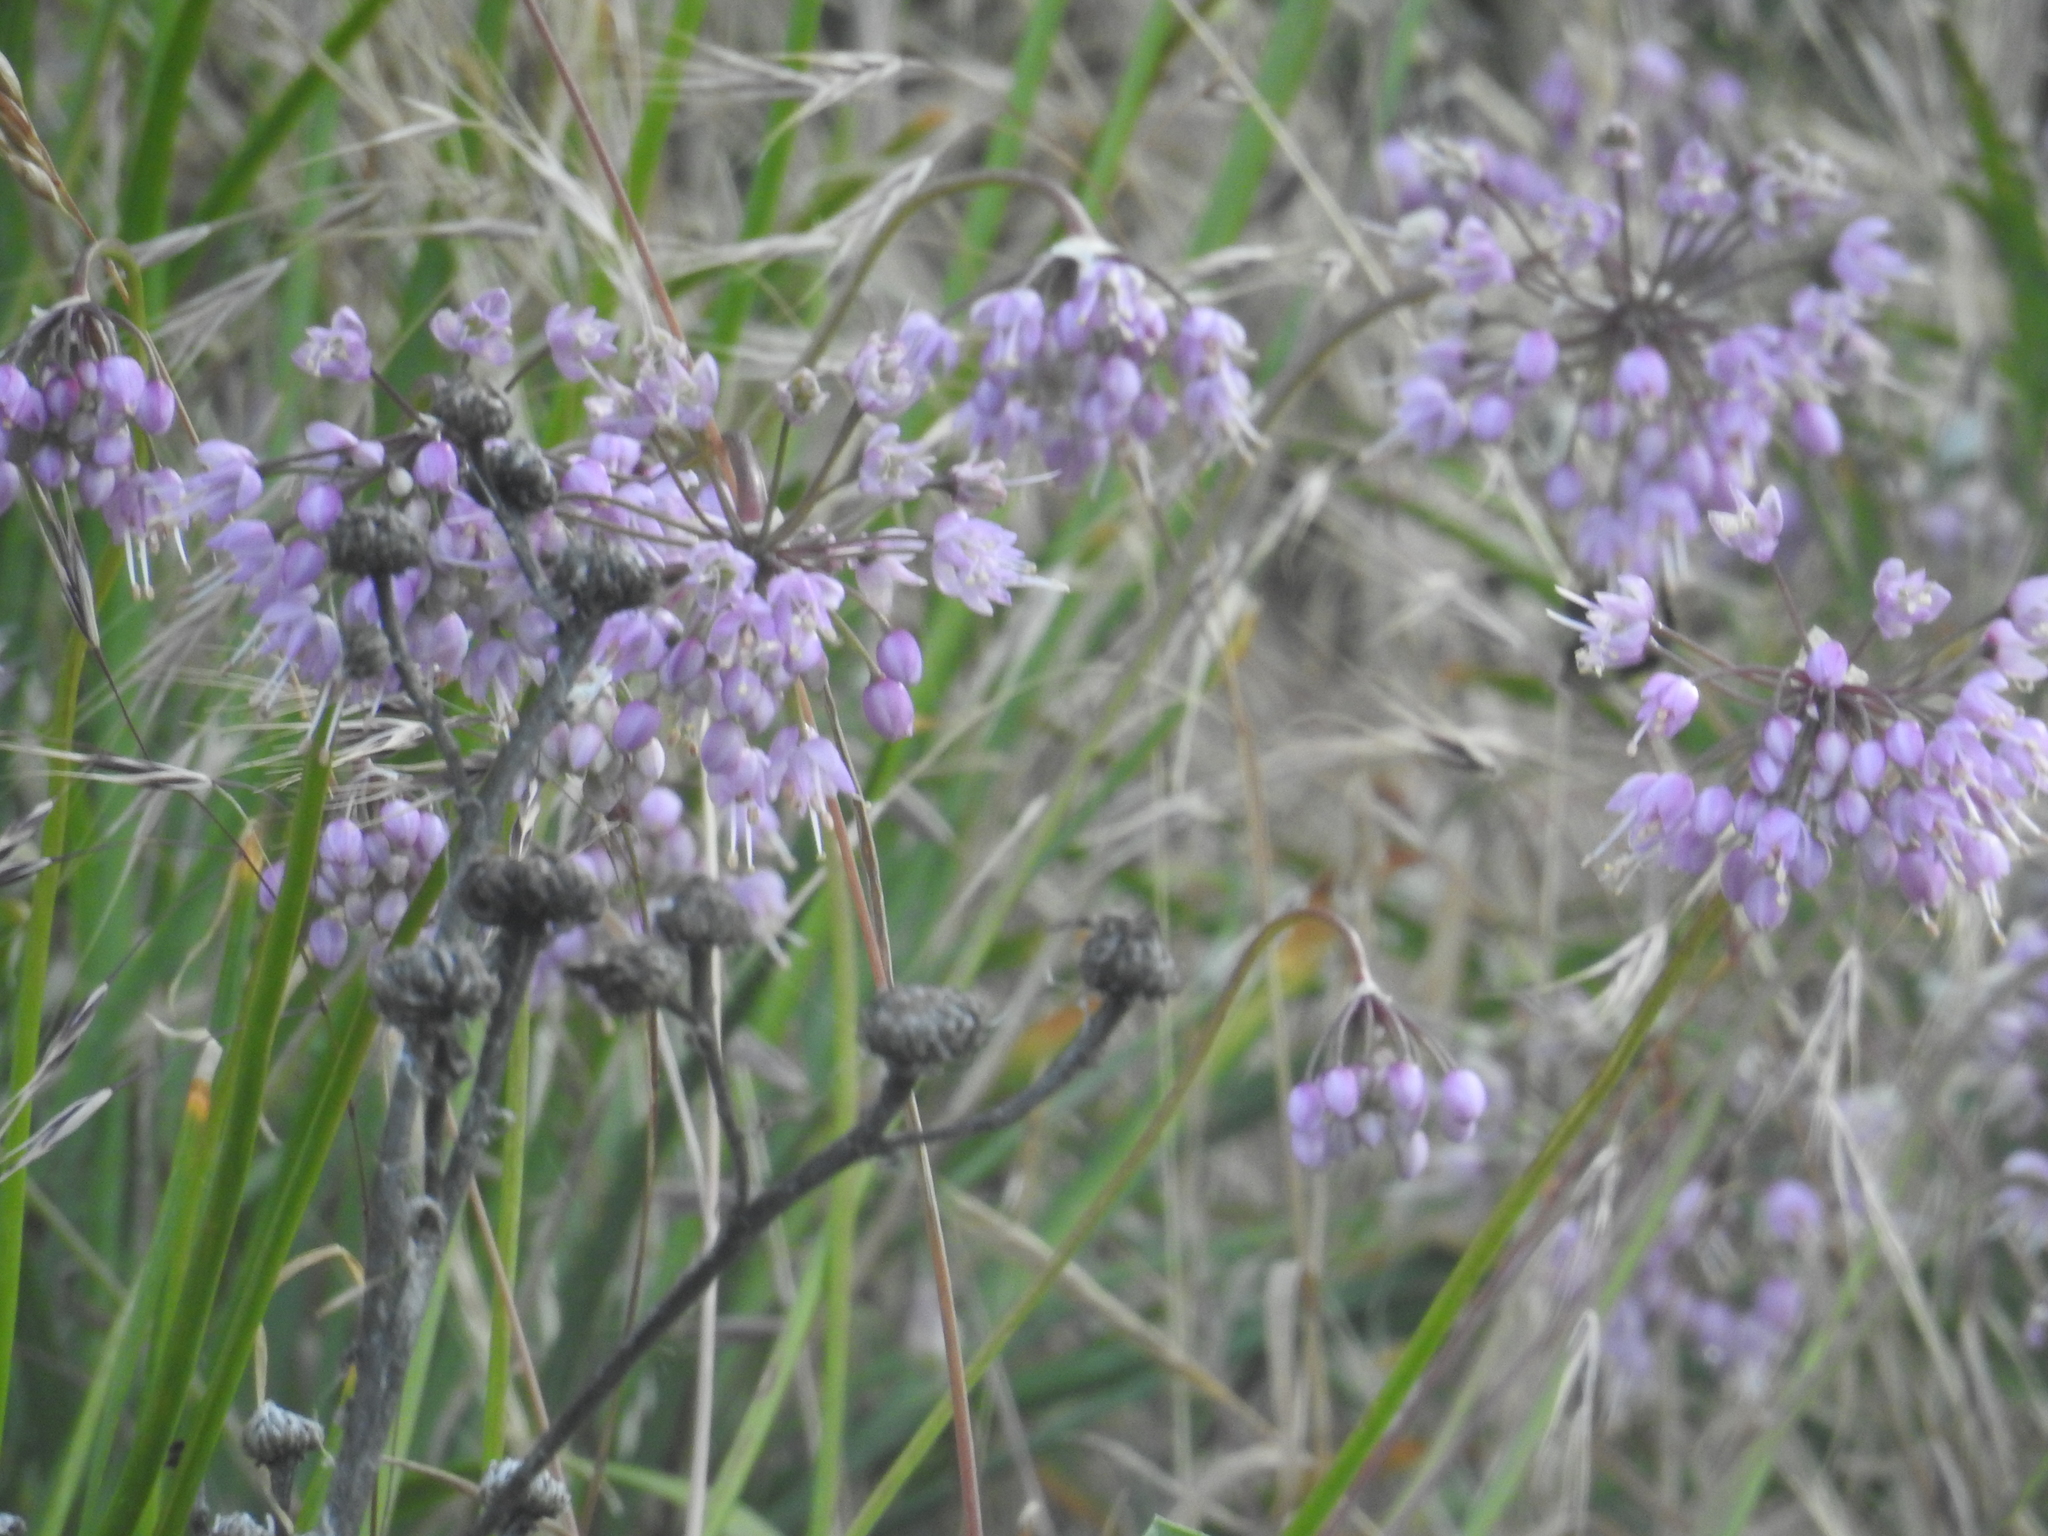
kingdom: Plantae
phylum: Tracheophyta
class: Liliopsida
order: Asparagales
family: Amaryllidaceae
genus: Allium
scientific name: Allium cernuum
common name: Nodding onion
